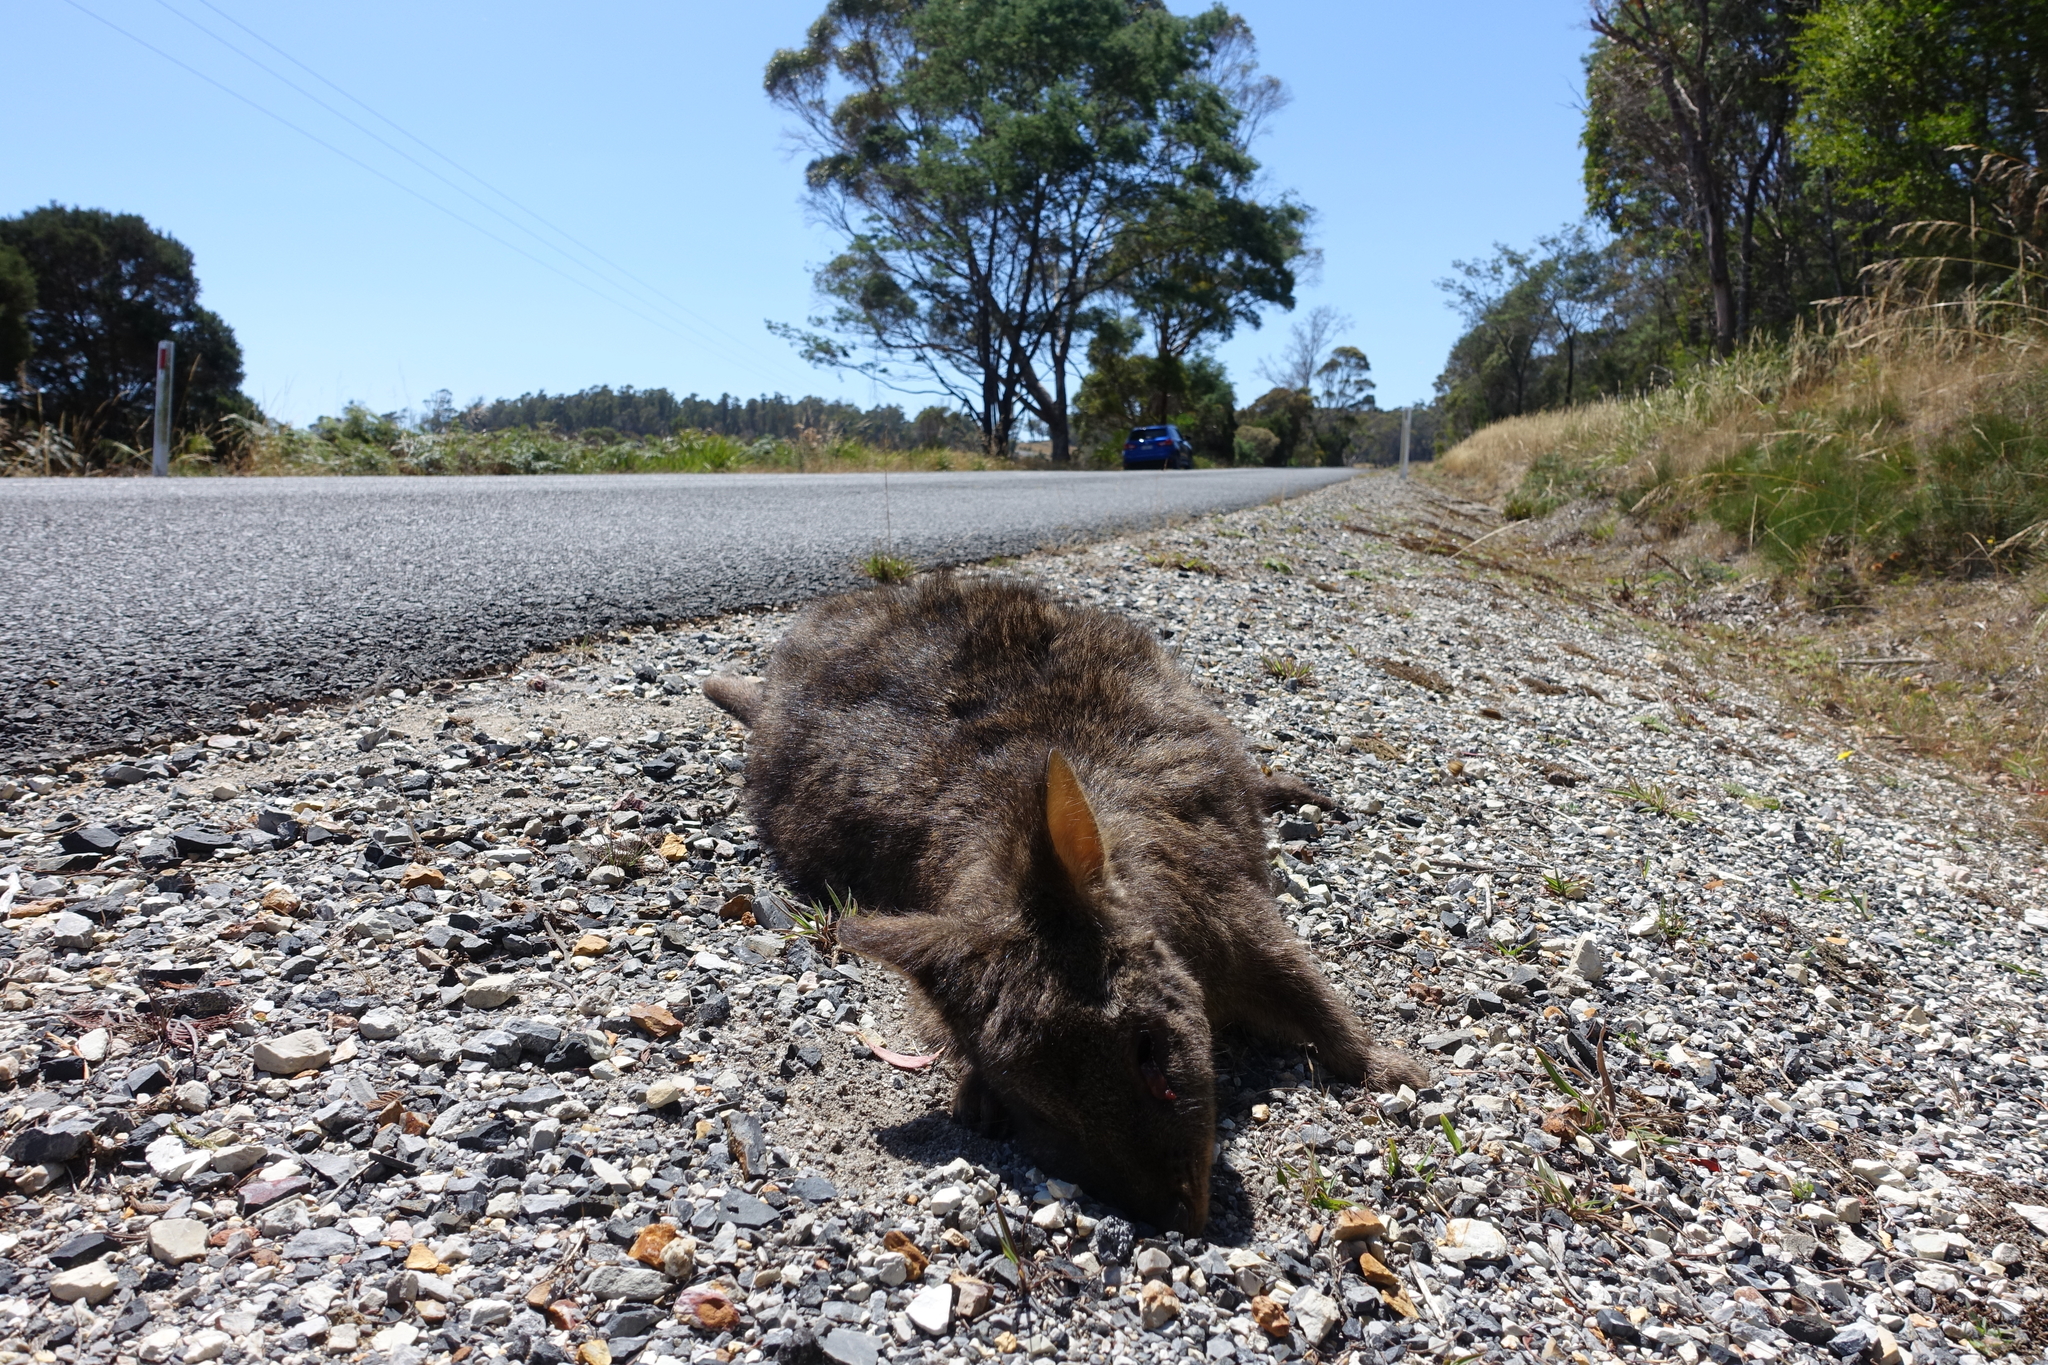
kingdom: Animalia
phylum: Chordata
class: Mammalia
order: Diprotodontia
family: Macropodidae
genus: Thylogale
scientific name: Thylogale billardierii
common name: Tasmanian pademelon
